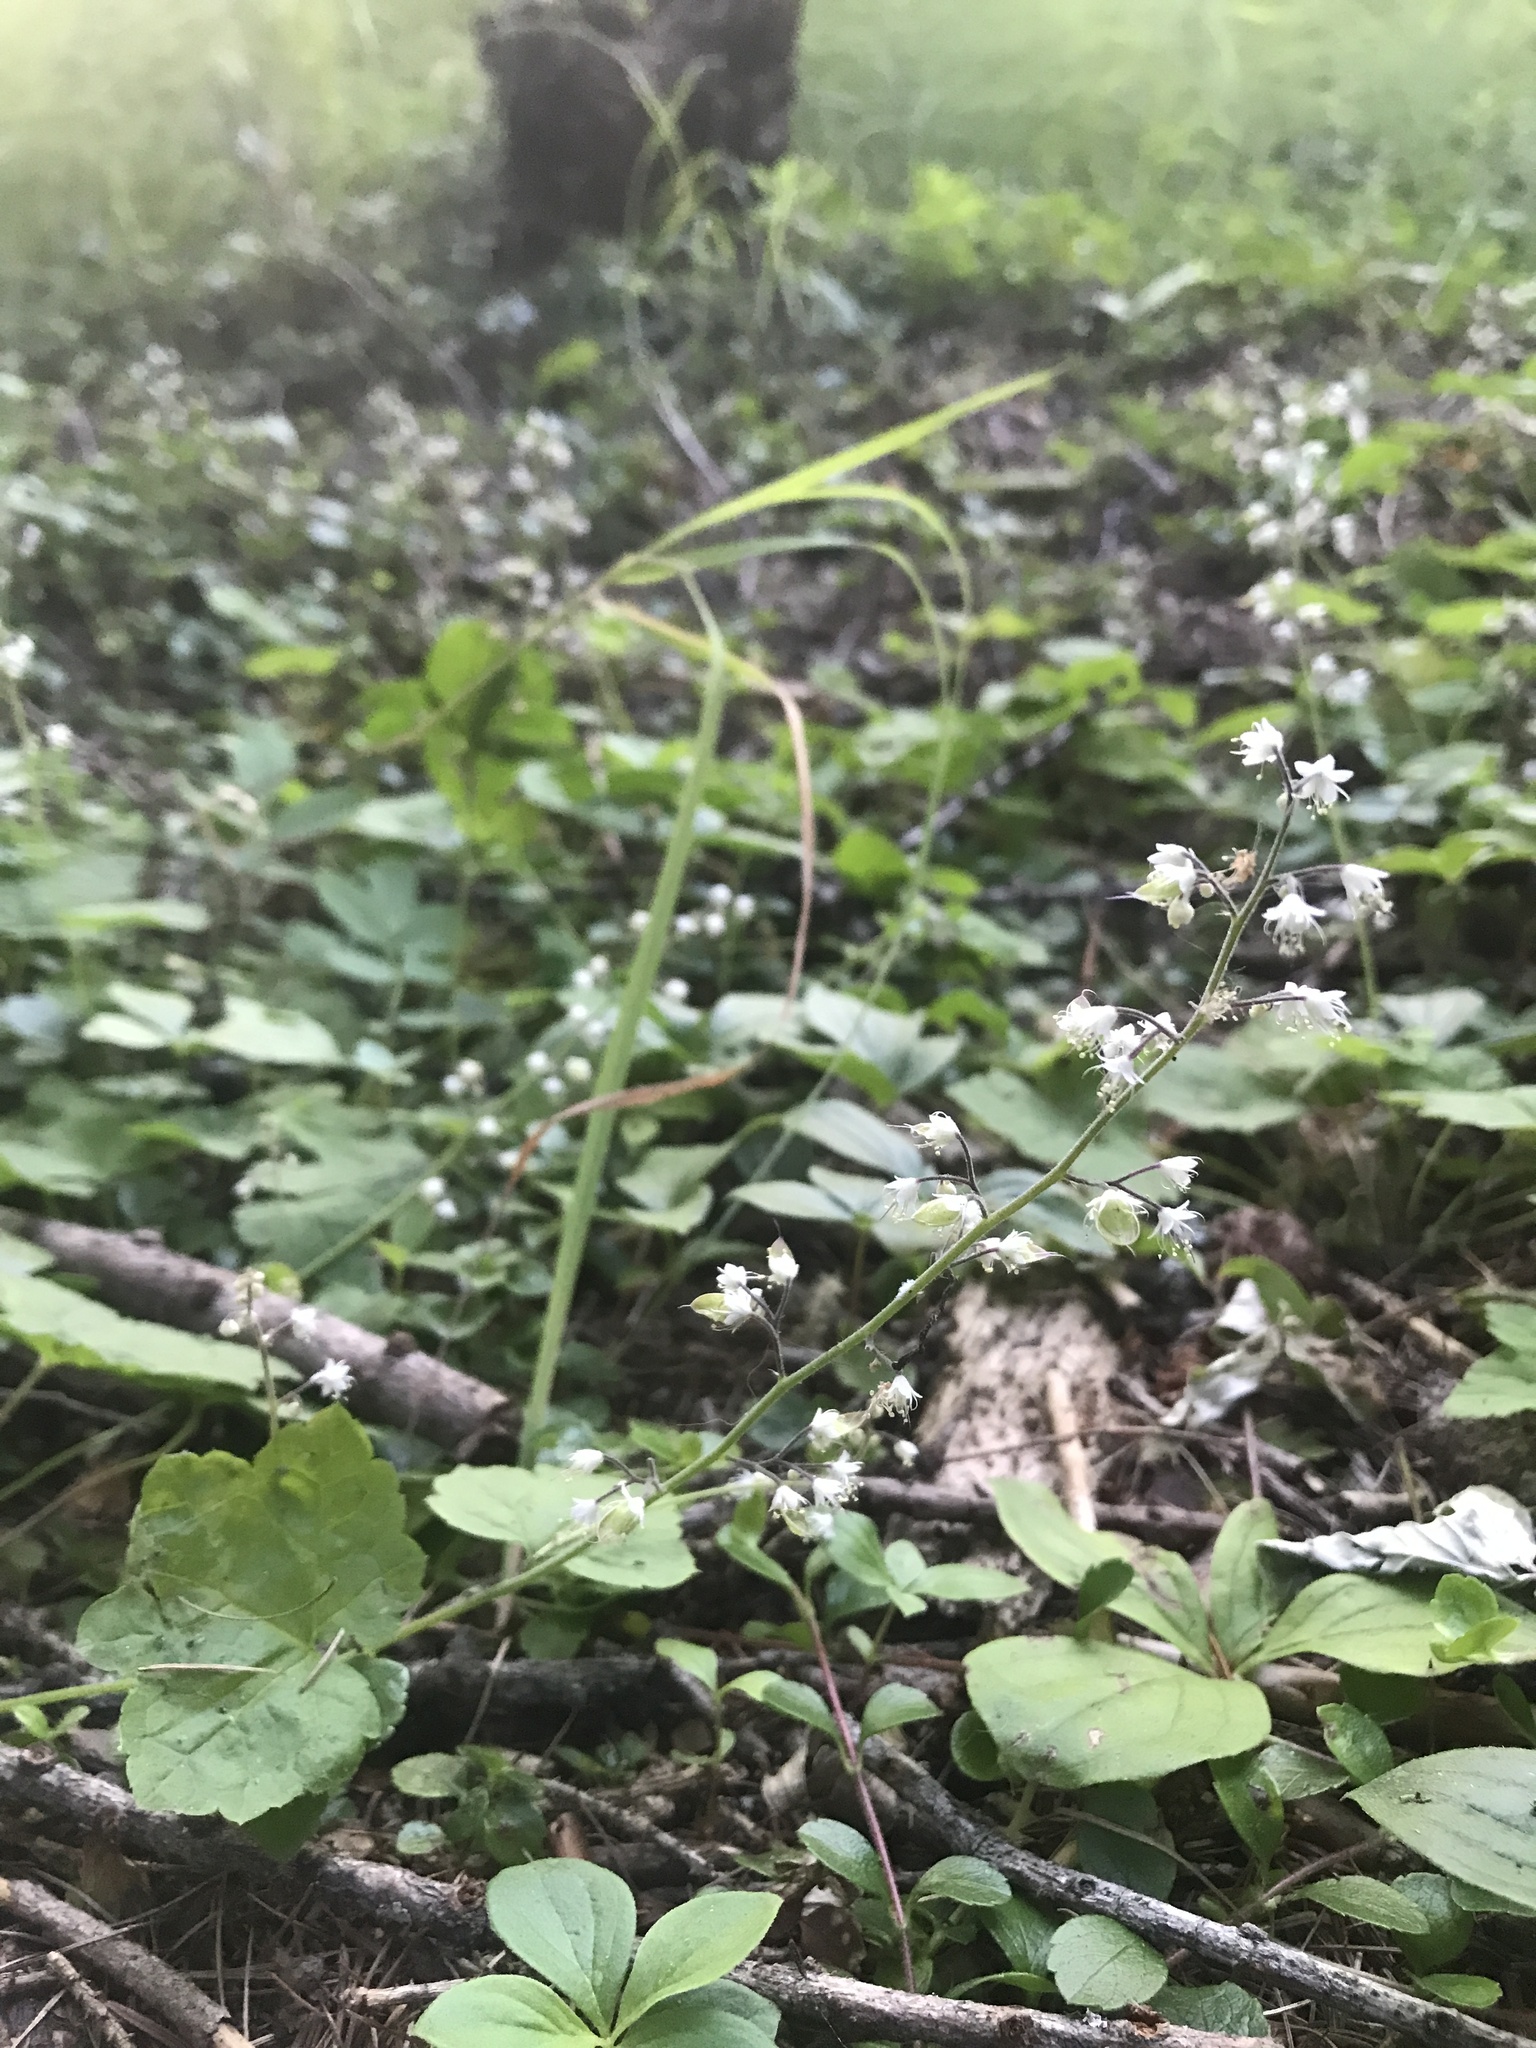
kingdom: Plantae
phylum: Tracheophyta
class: Magnoliopsida
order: Saxifragales
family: Saxifragaceae
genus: Tiarella
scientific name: Tiarella trifoliata
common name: Sugar-scoop
